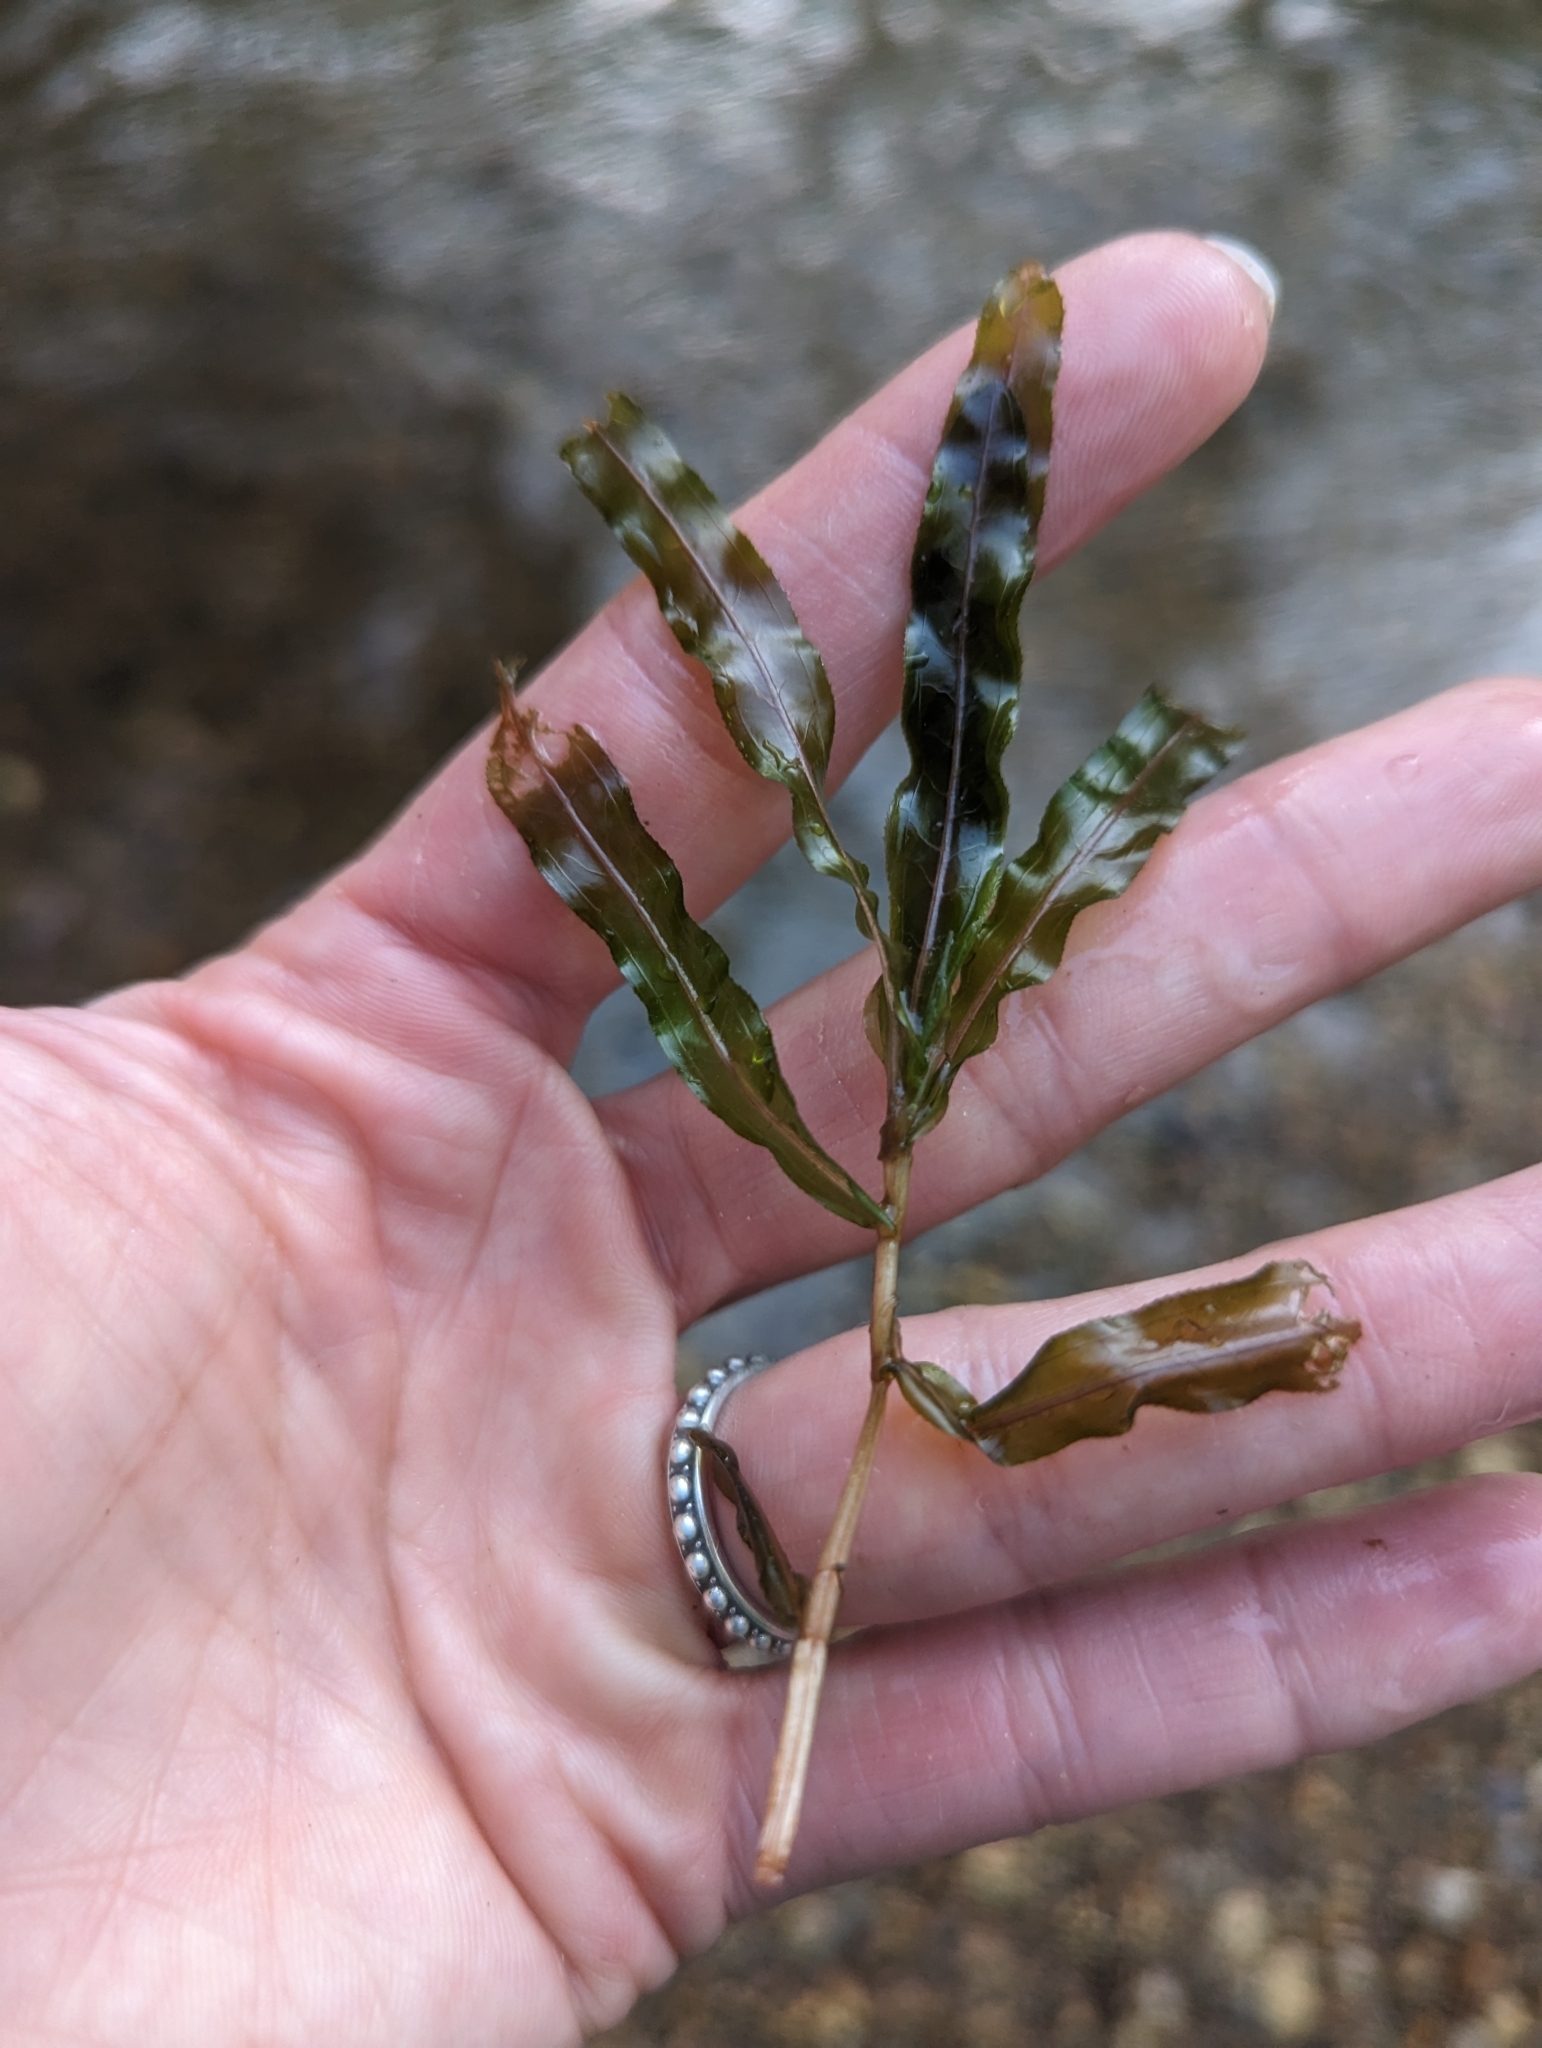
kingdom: Plantae
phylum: Tracheophyta
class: Liliopsida
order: Alismatales
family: Potamogetonaceae
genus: Potamogeton
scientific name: Potamogeton crispus
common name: Curled pondweed
